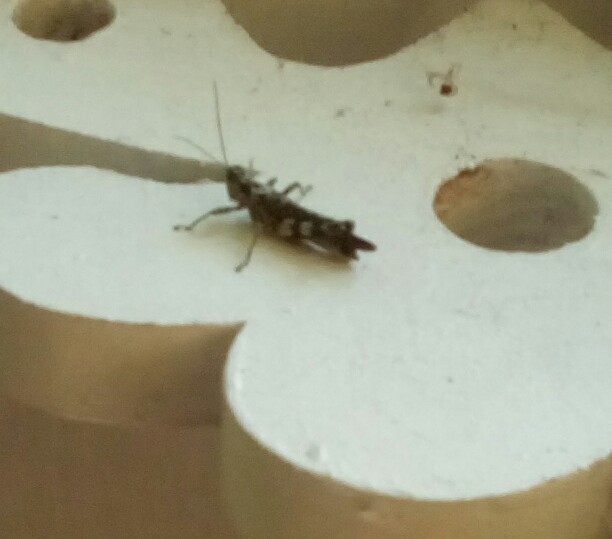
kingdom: Animalia
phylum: Arthropoda
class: Insecta
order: Orthoptera
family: Acrididae
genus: Melanoplus
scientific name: Melanoplus punctulatus
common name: Pine-tree spur-throat grasshopper
